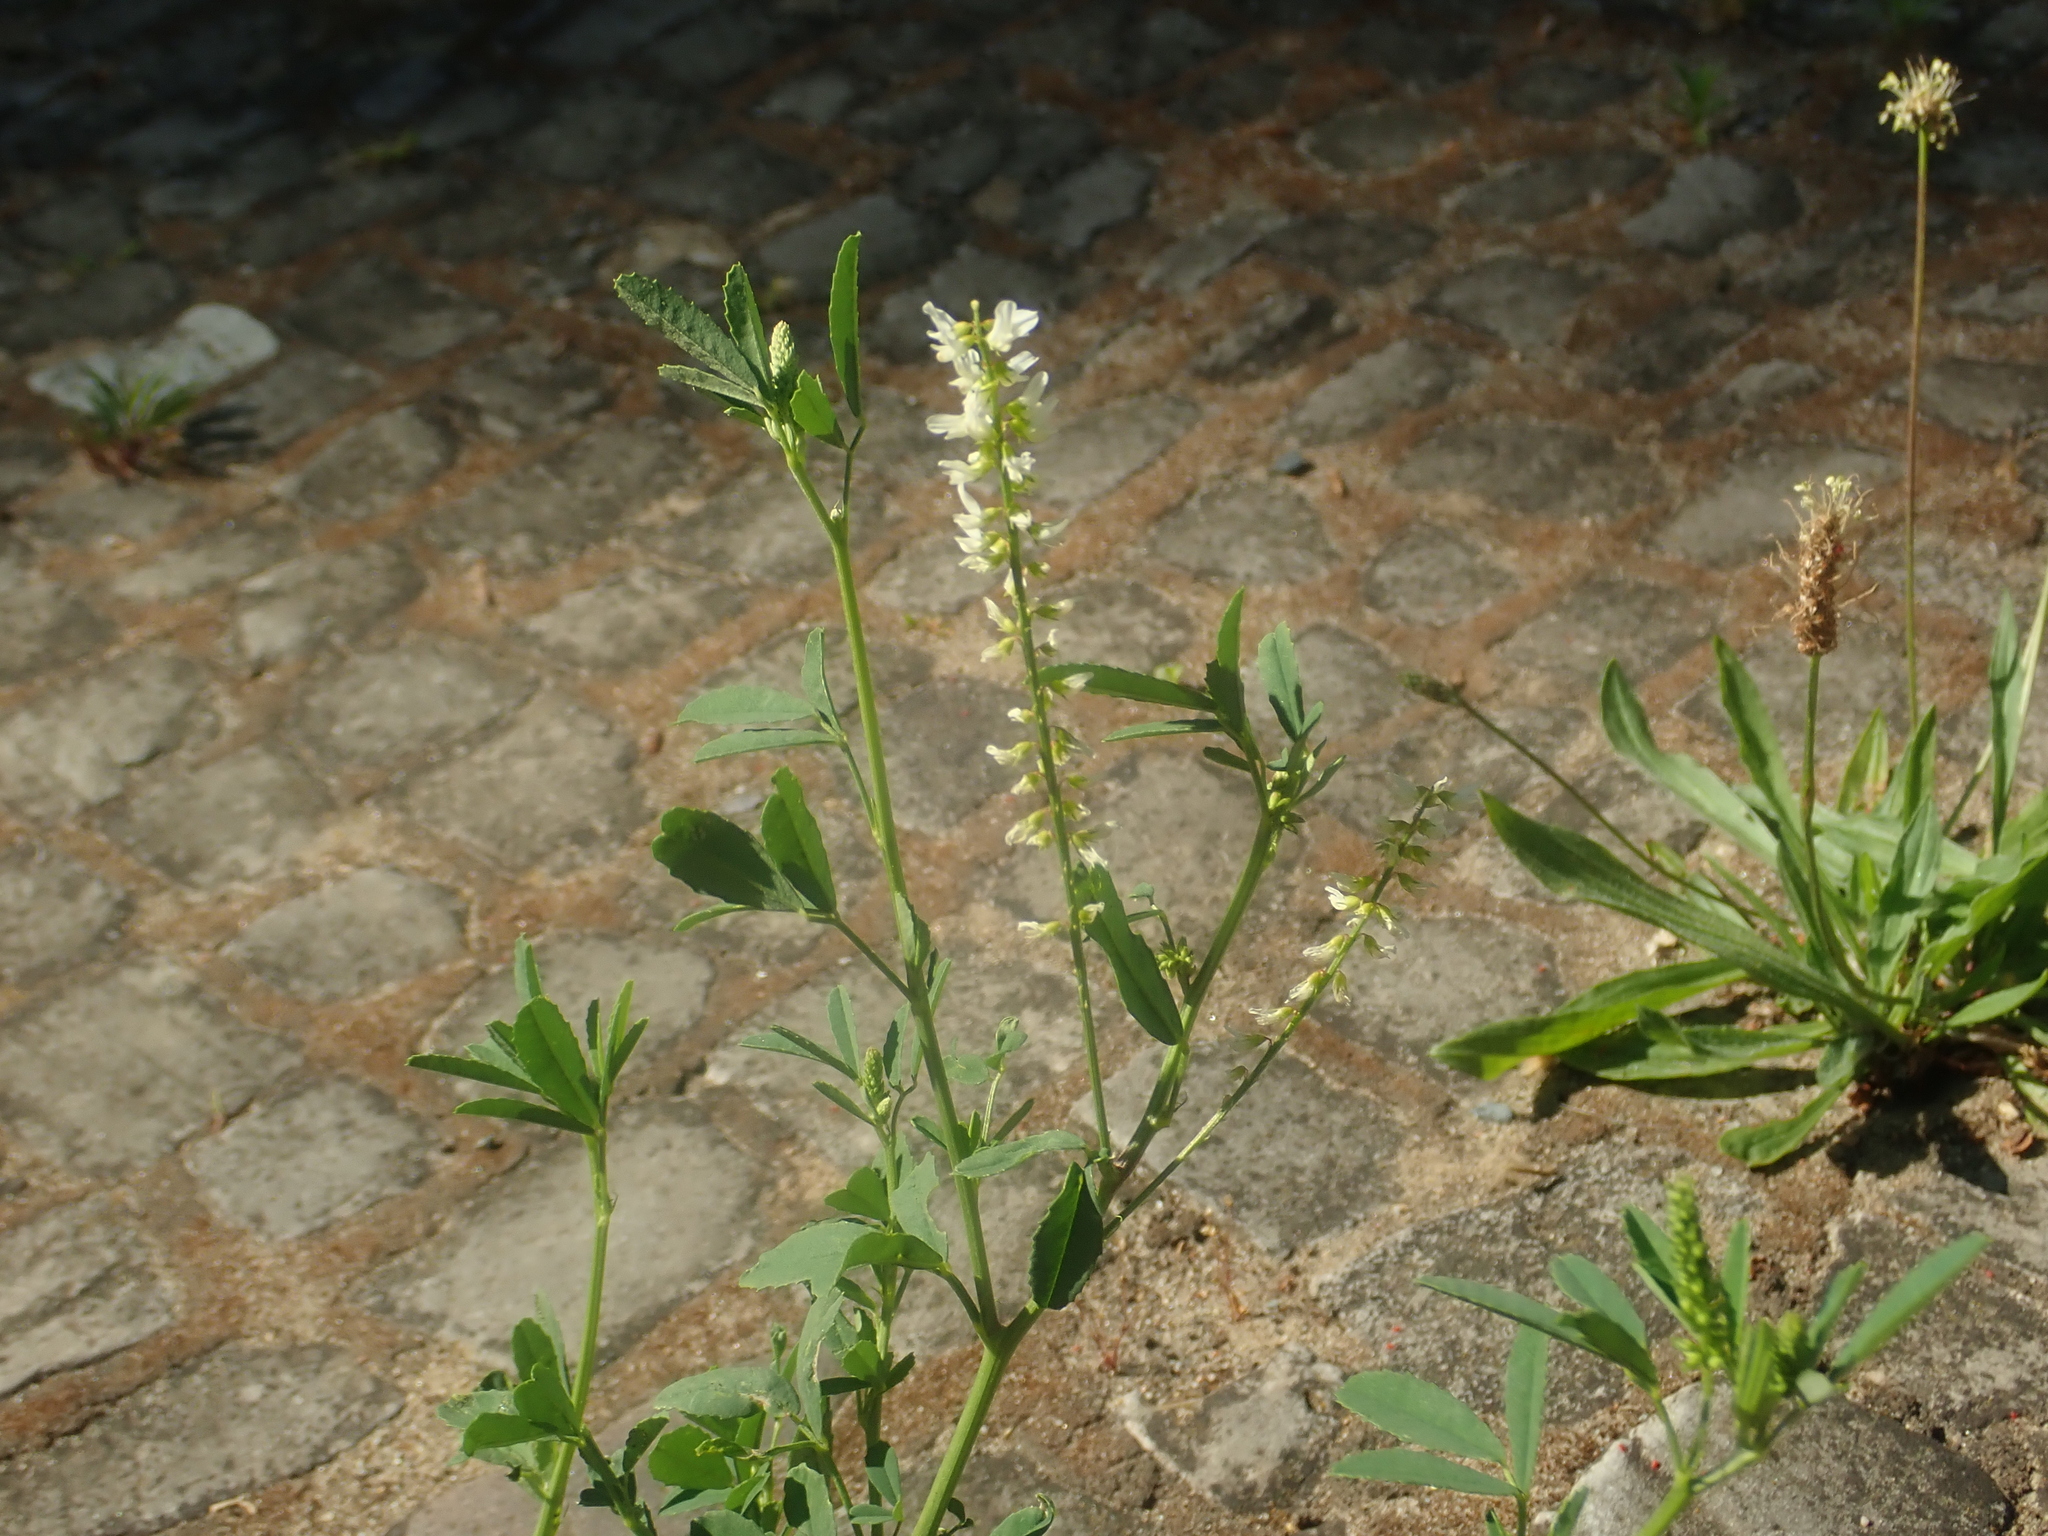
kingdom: Plantae
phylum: Tracheophyta
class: Magnoliopsida
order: Fabales
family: Fabaceae
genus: Melilotus
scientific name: Melilotus albus
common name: White melilot
